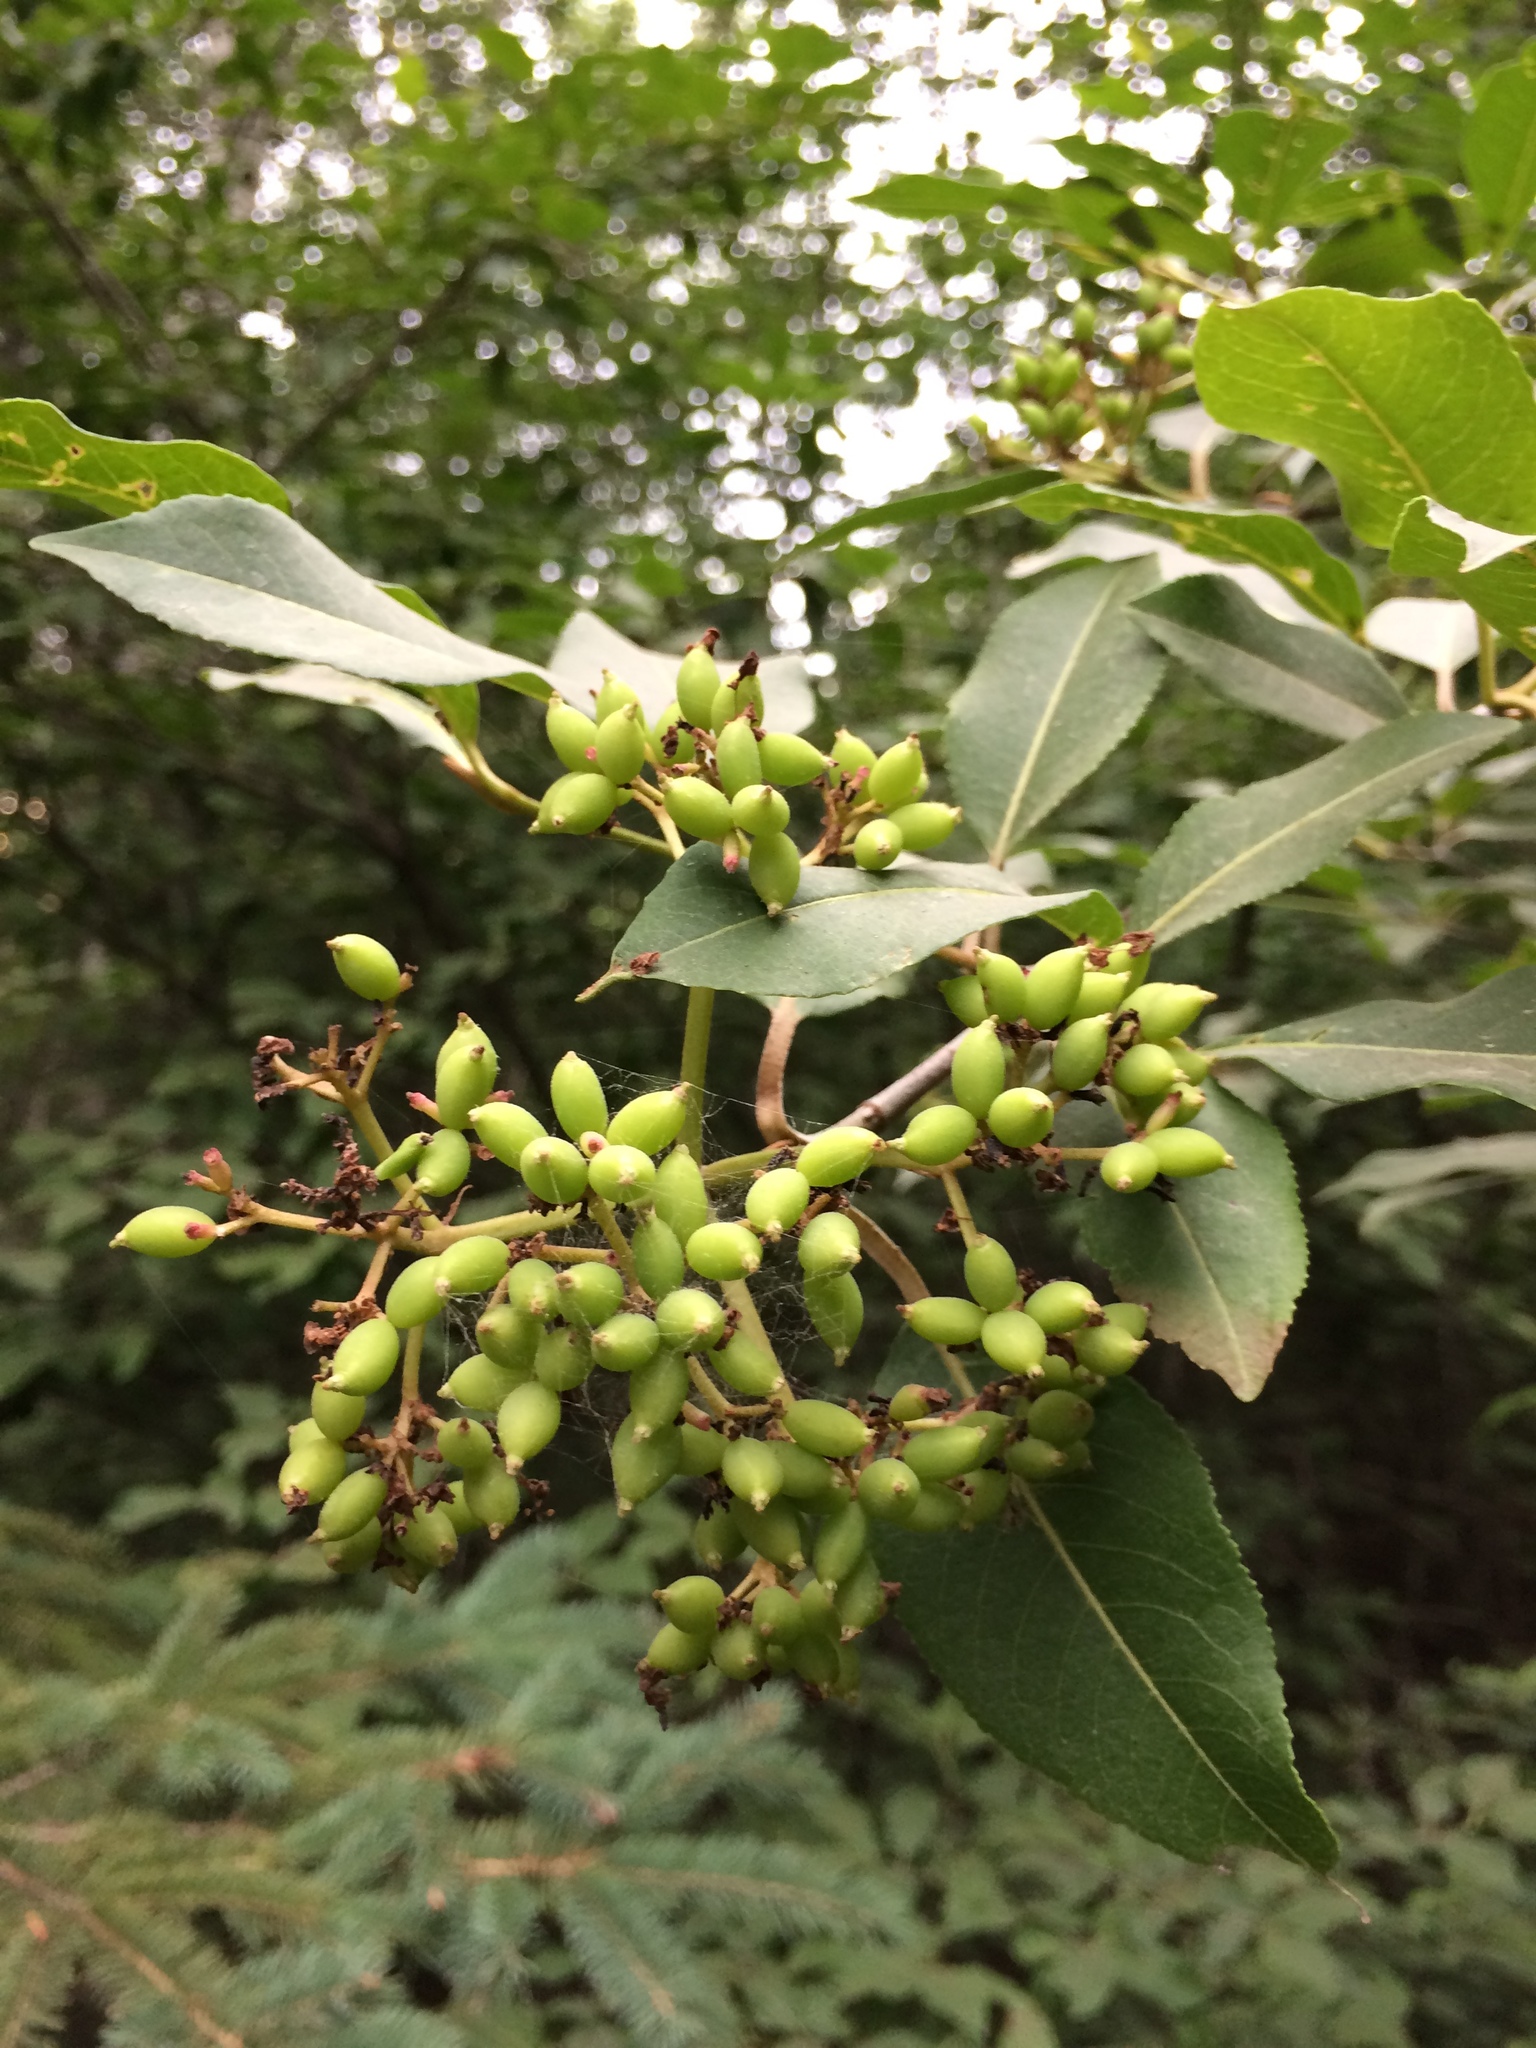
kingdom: Plantae
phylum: Tracheophyta
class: Magnoliopsida
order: Dipsacales
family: Viburnaceae
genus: Viburnum
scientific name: Viburnum cassinoides
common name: Swamp haw
